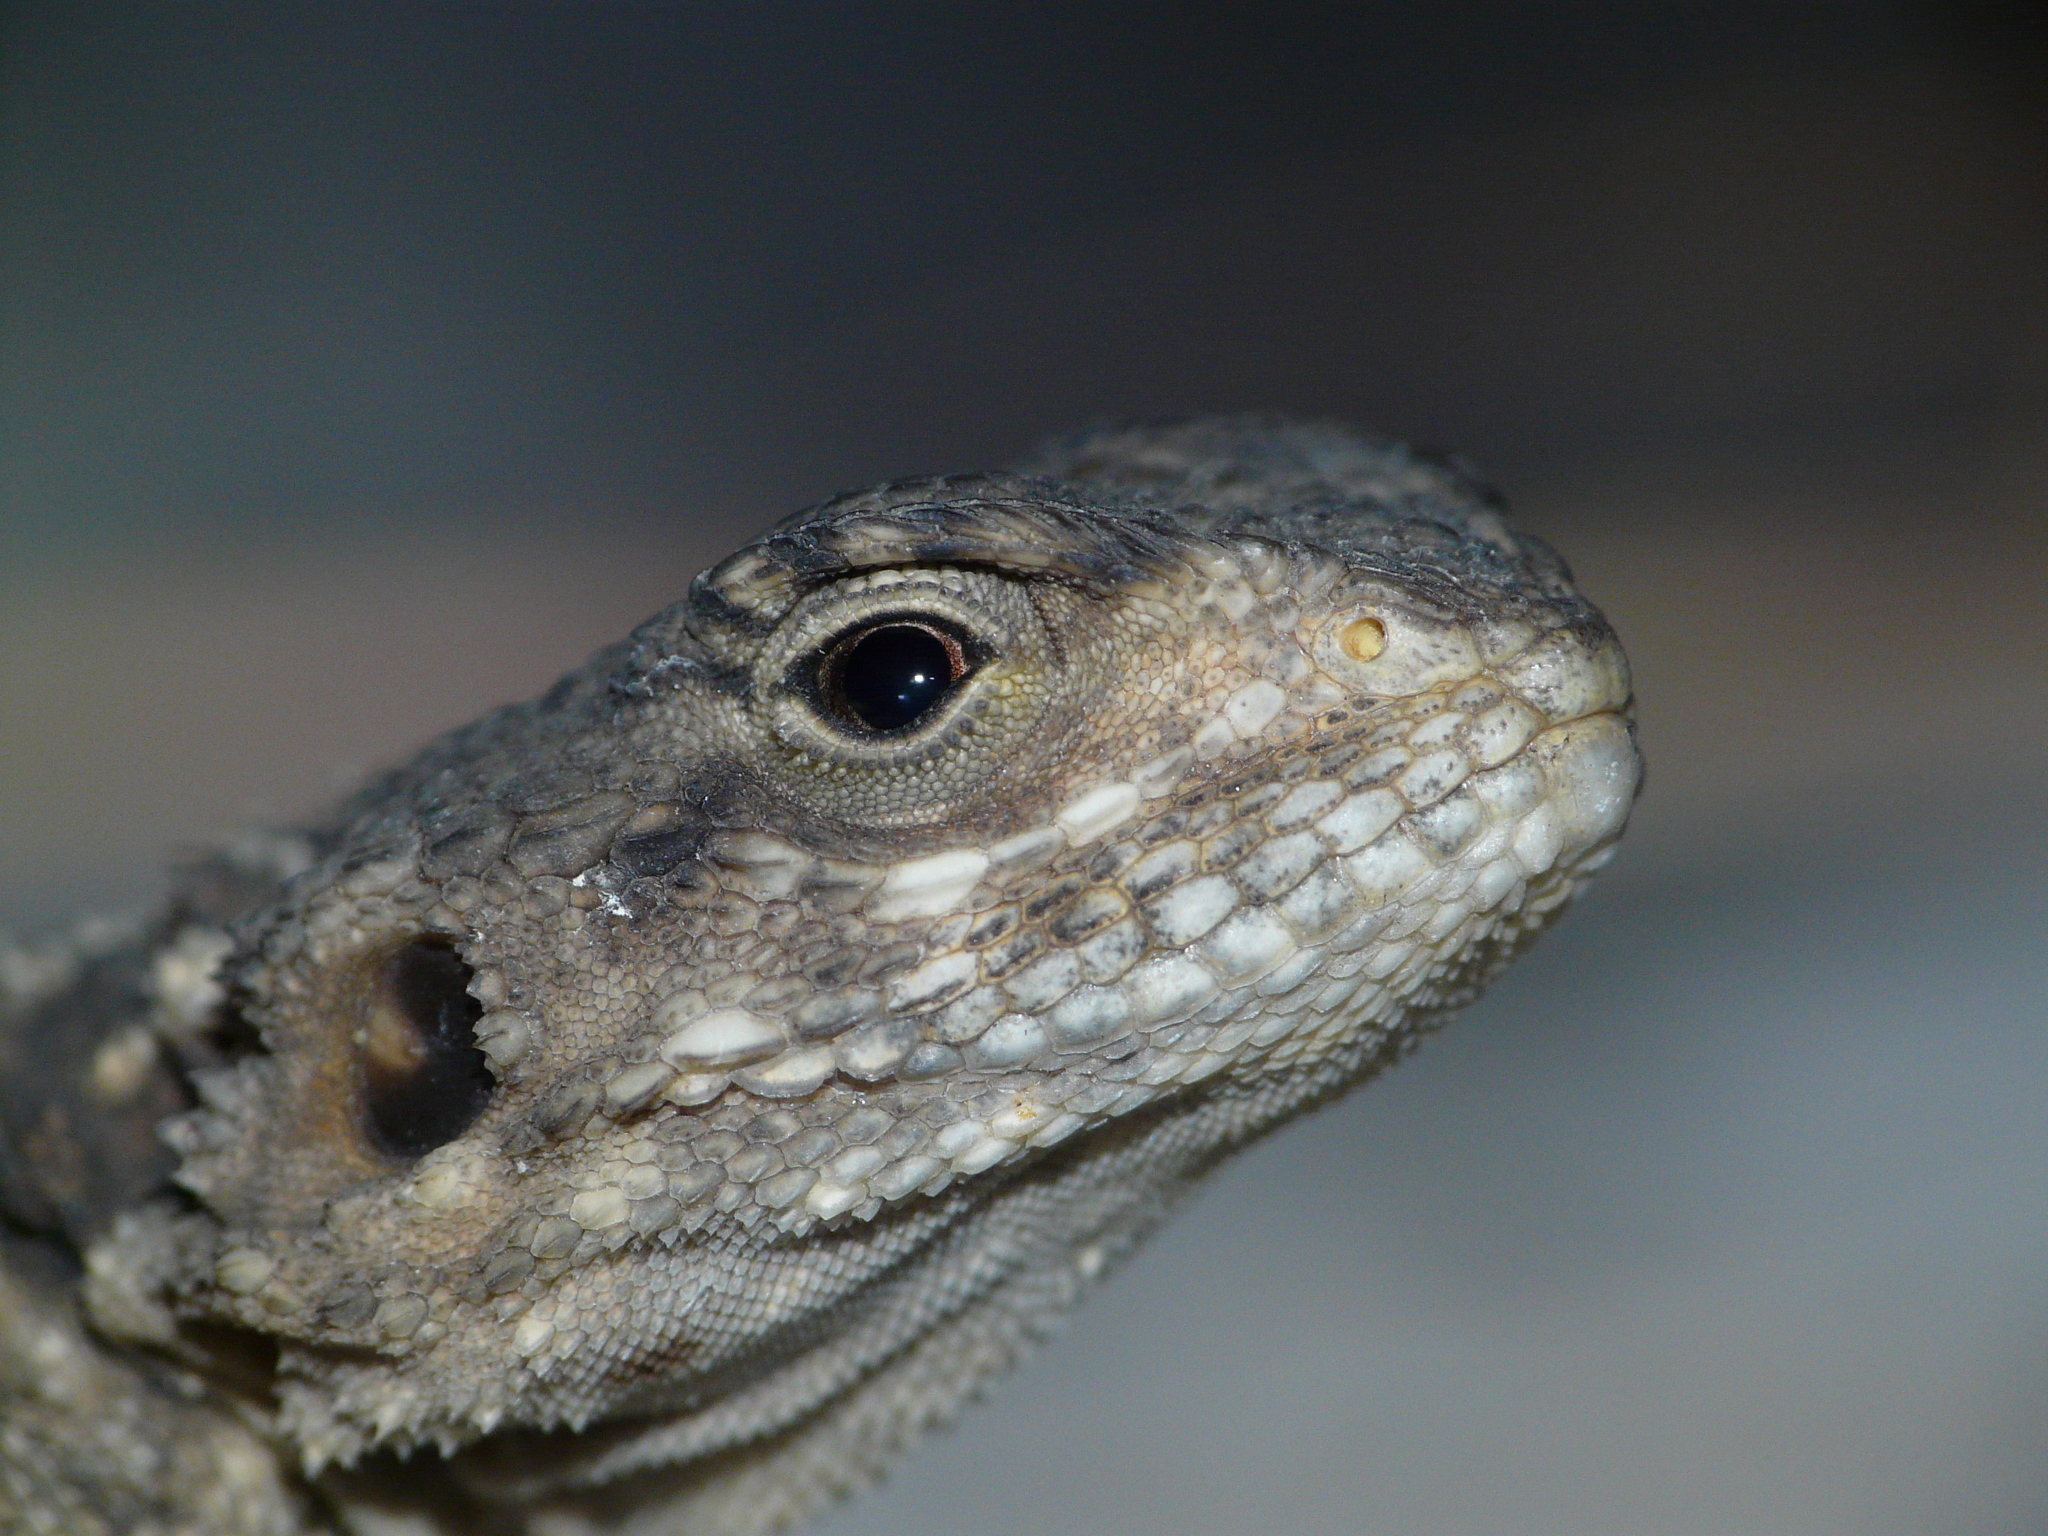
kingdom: Animalia
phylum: Chordata
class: Squamata
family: Agamidae
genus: Laudakia
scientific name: Laudakia vulgaris
